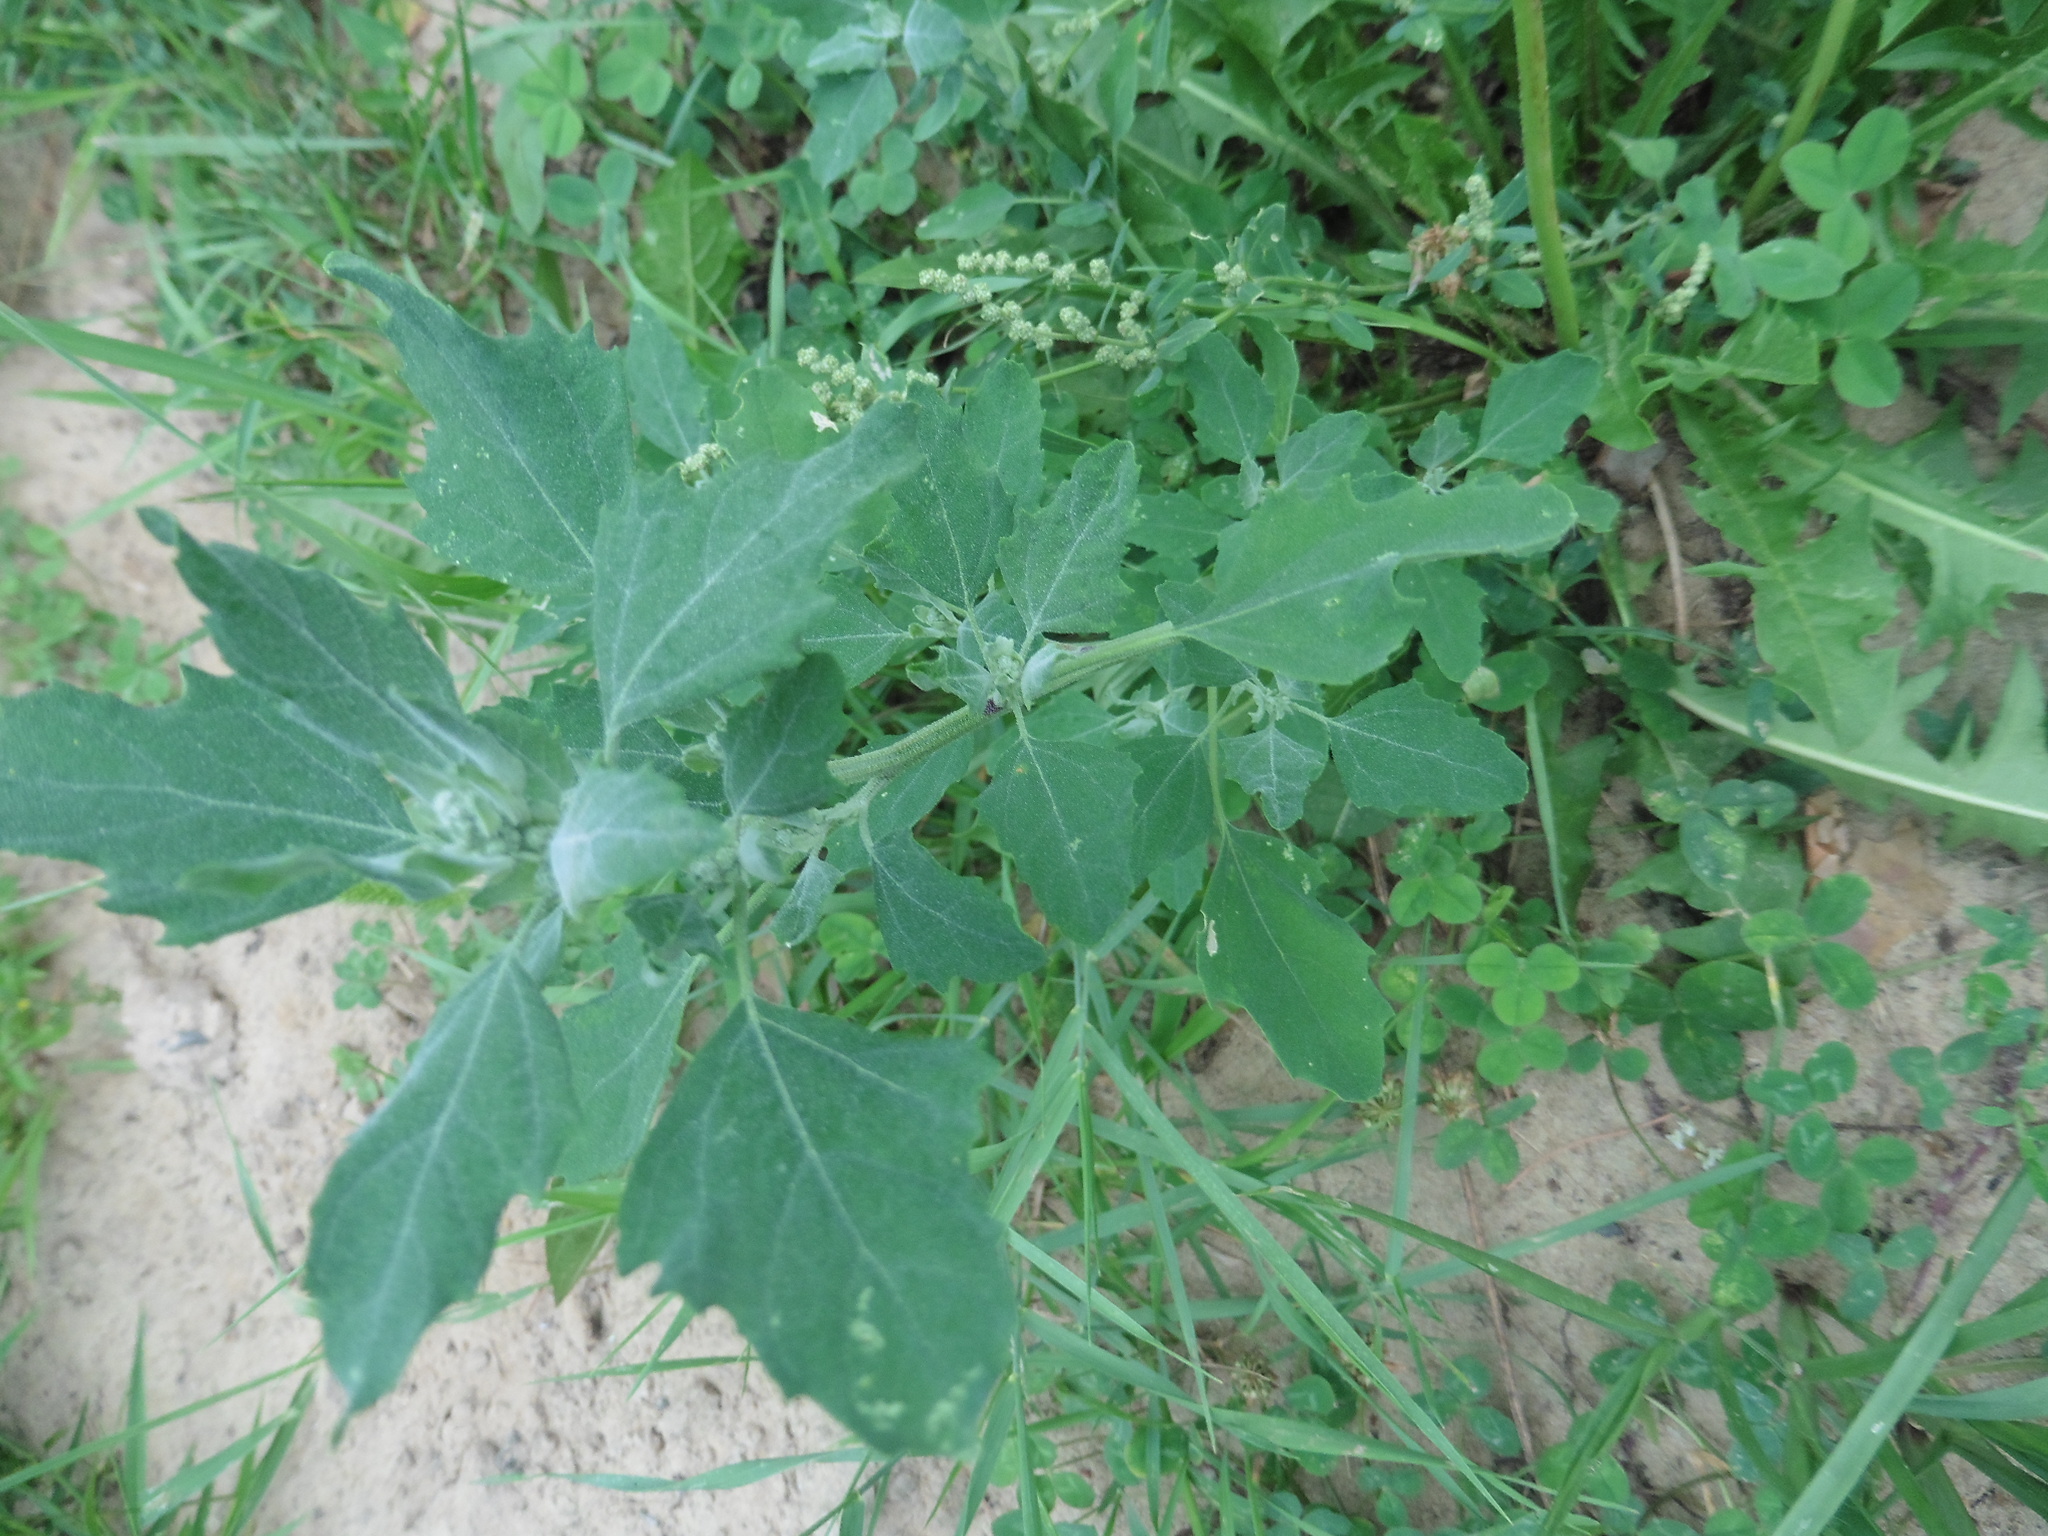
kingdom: Plantae
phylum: Tracheophyta
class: Magnoliopsida
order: Caryophyllales
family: Amaranthaceae
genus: Chenopodium
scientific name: Chenopodium album
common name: Fat-hen
